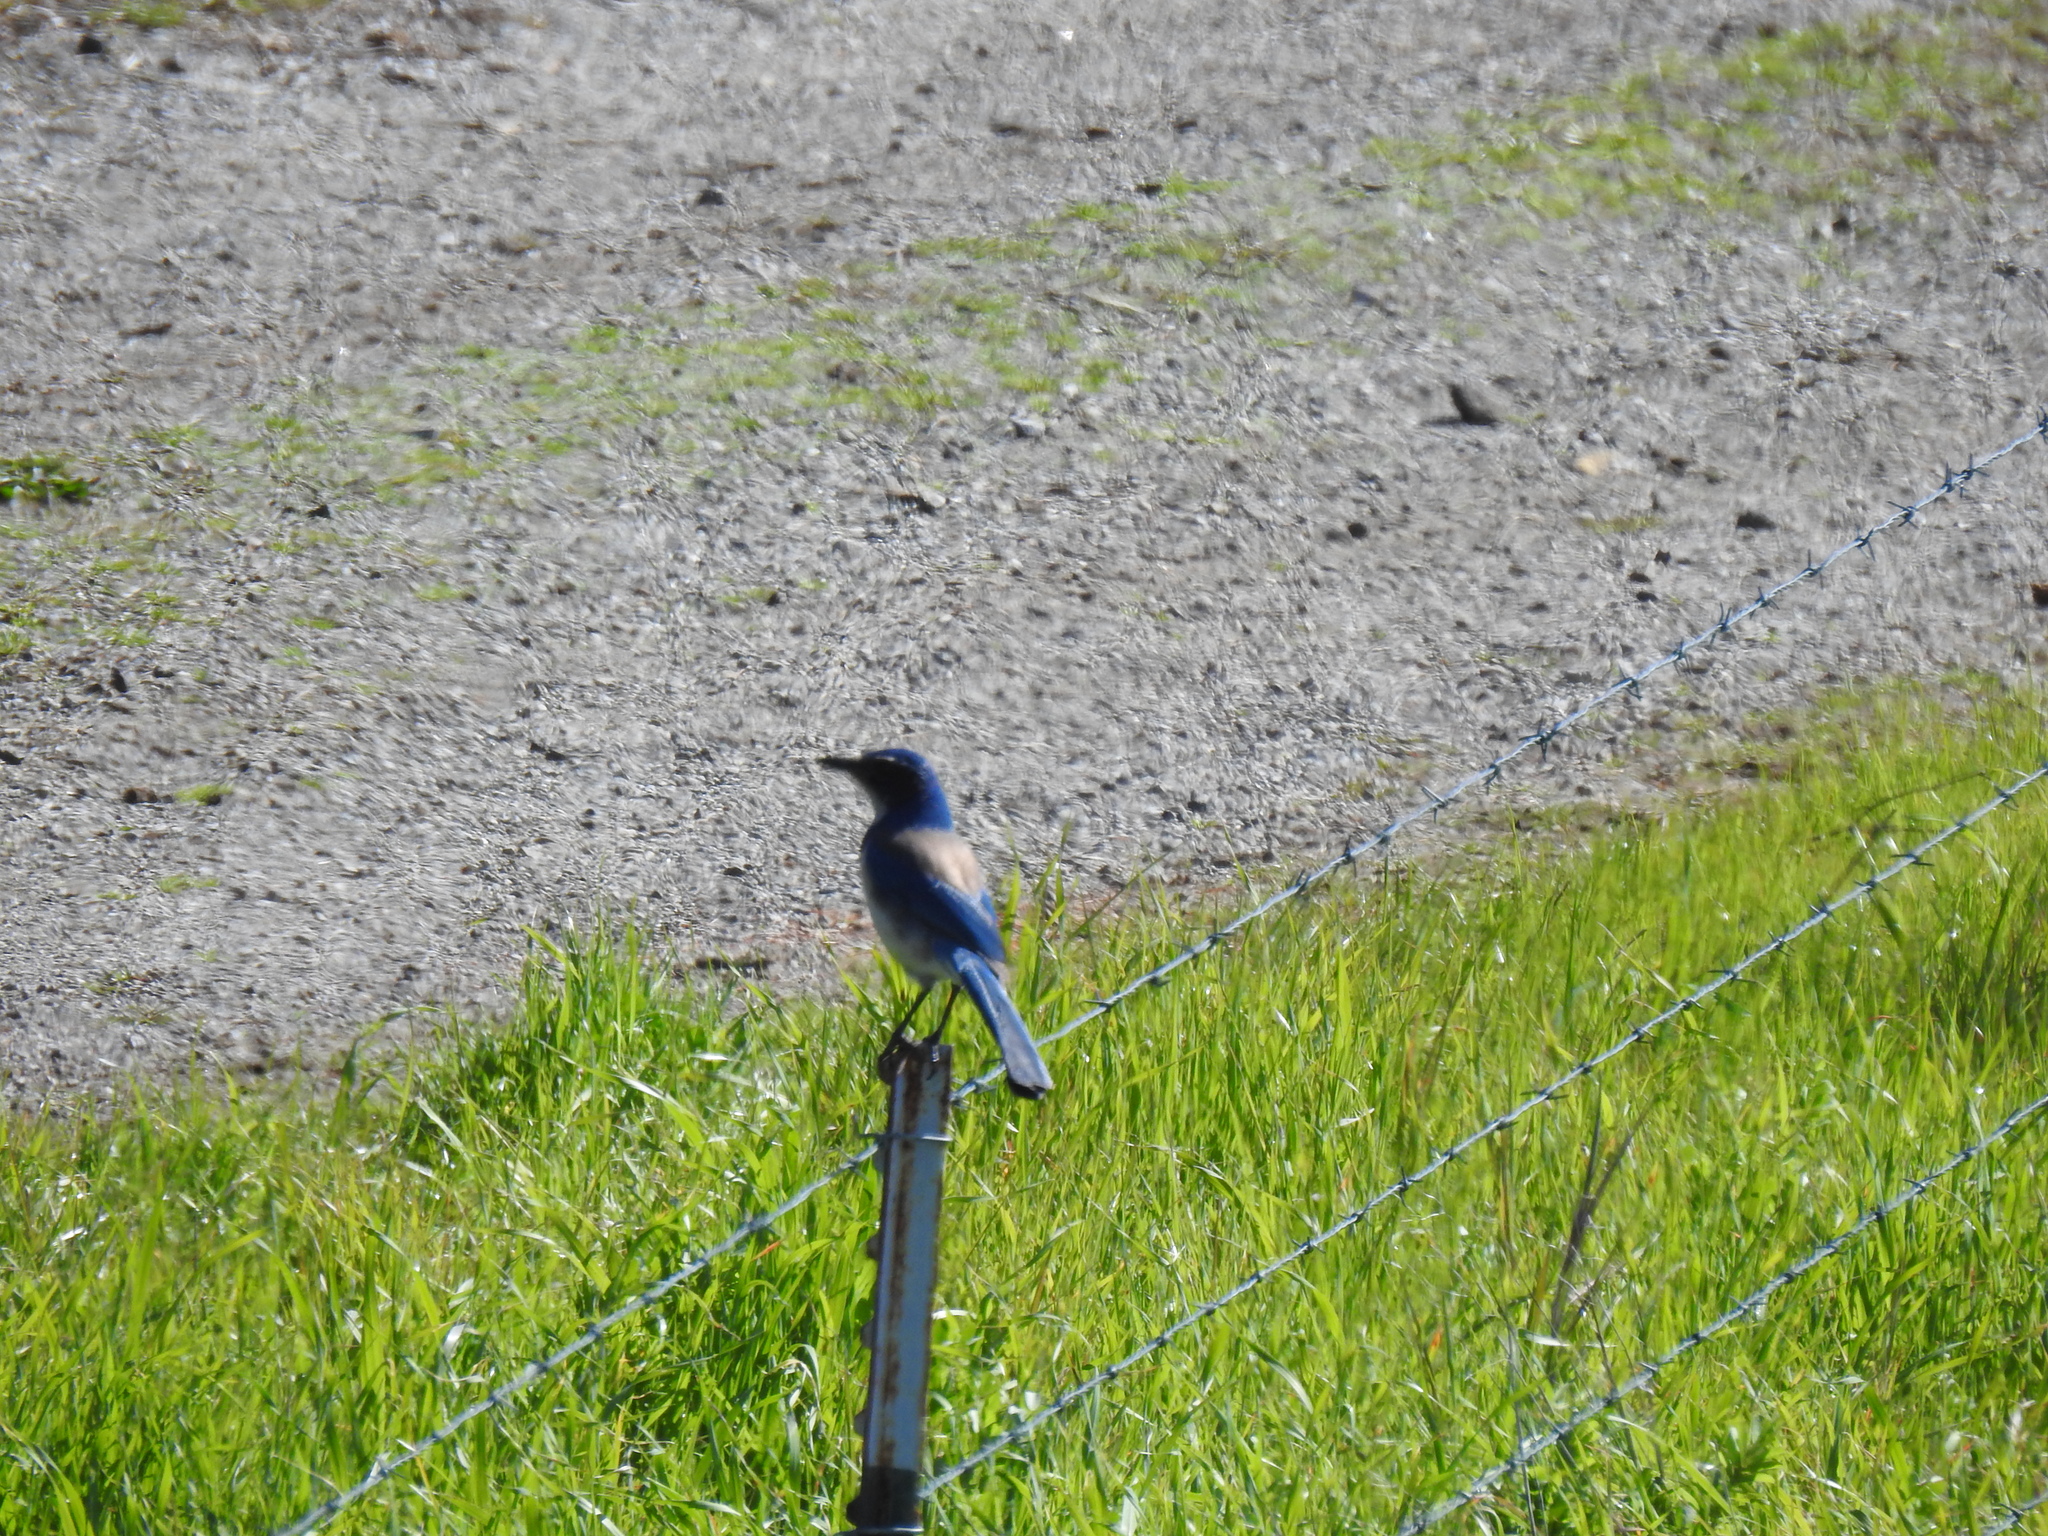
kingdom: Animalia
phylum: Chordata
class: Aves
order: Passeriformes
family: Corvidae
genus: Aphelocoma
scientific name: Aphelocoma californica
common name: California scrub-jay
